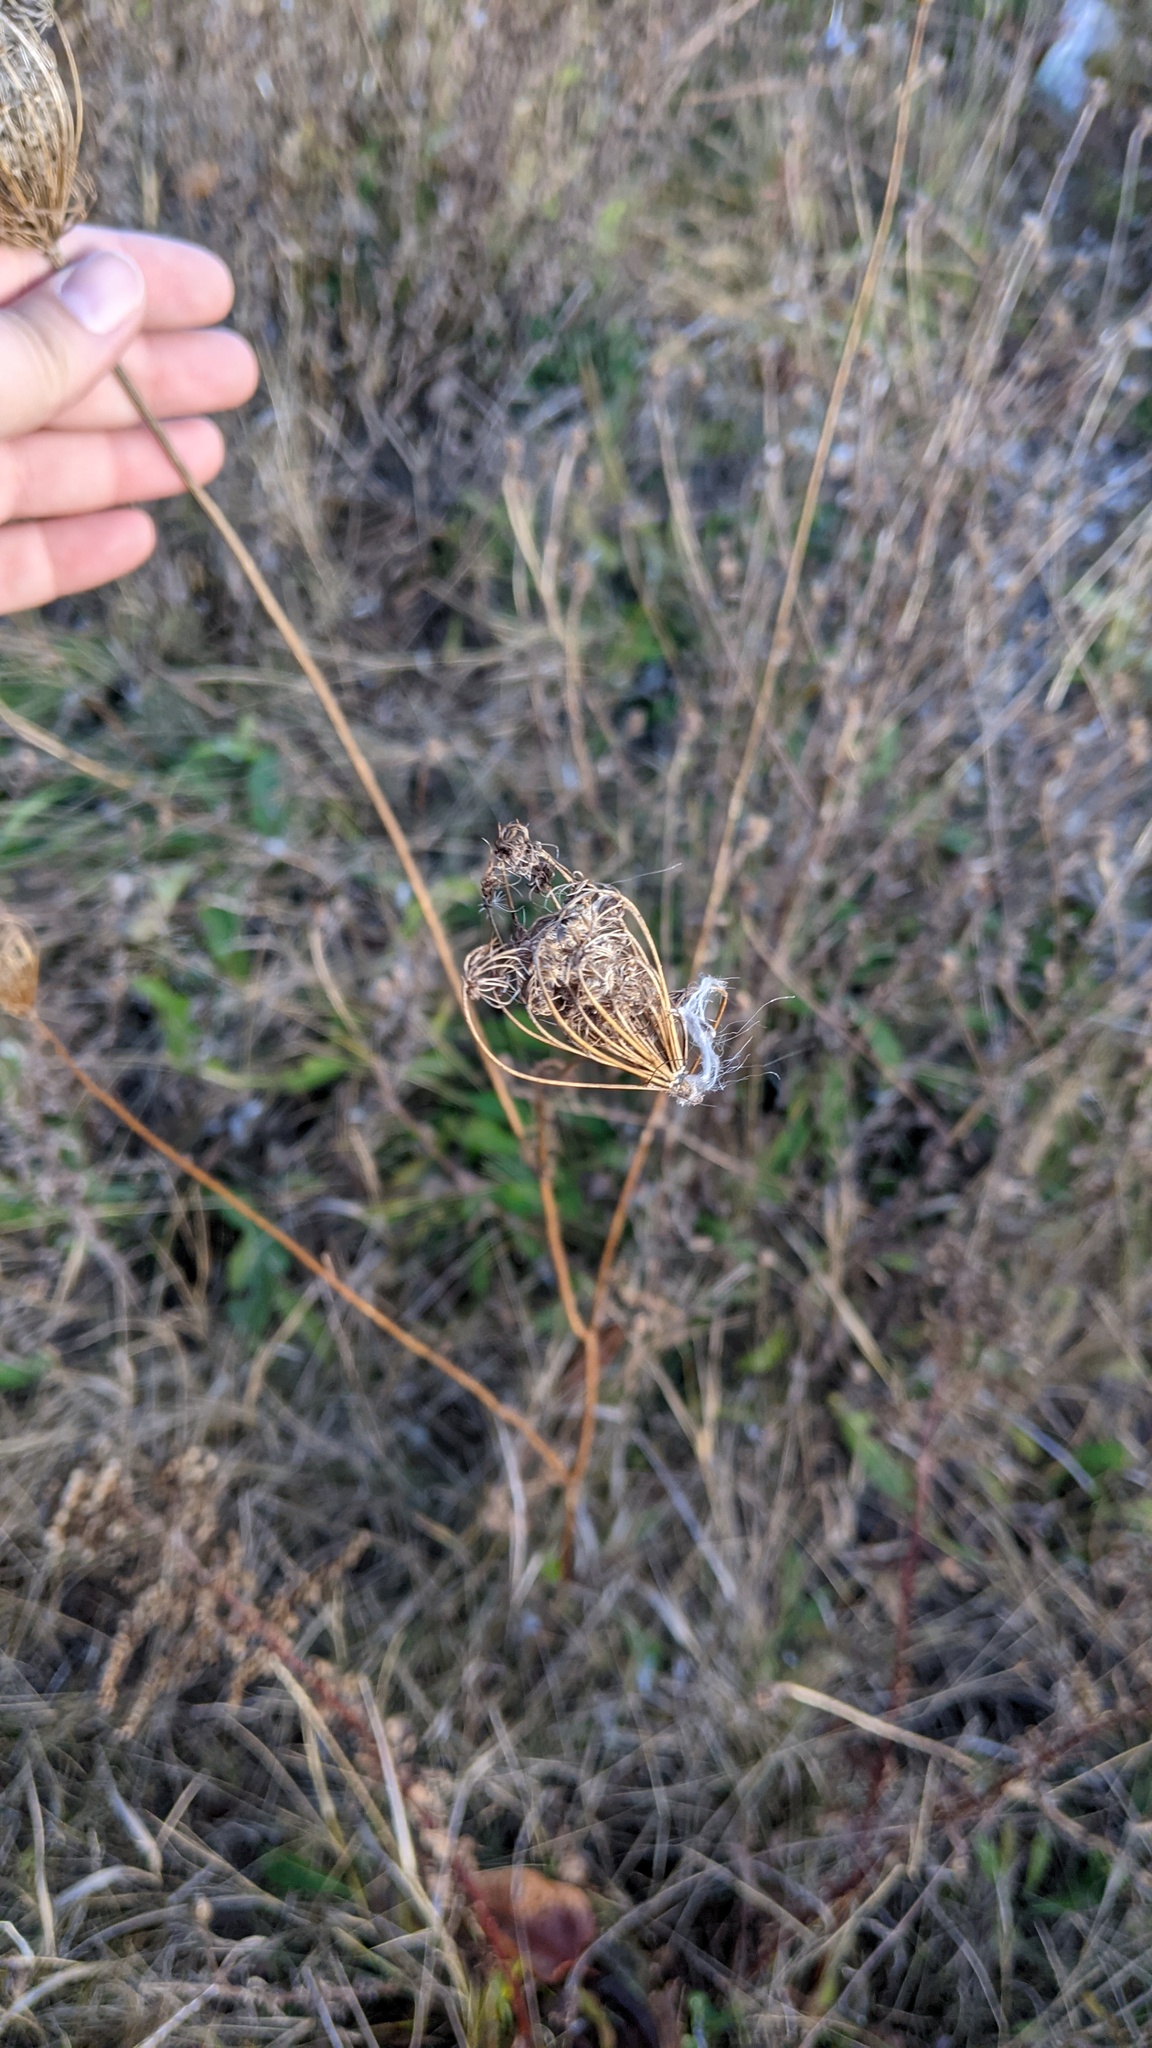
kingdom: Plantae
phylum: Tracheophyta
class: Magnoliopsida
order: Apiales
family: Apiaceae
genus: Daucus
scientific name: Daucus carota
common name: Wild carrot
